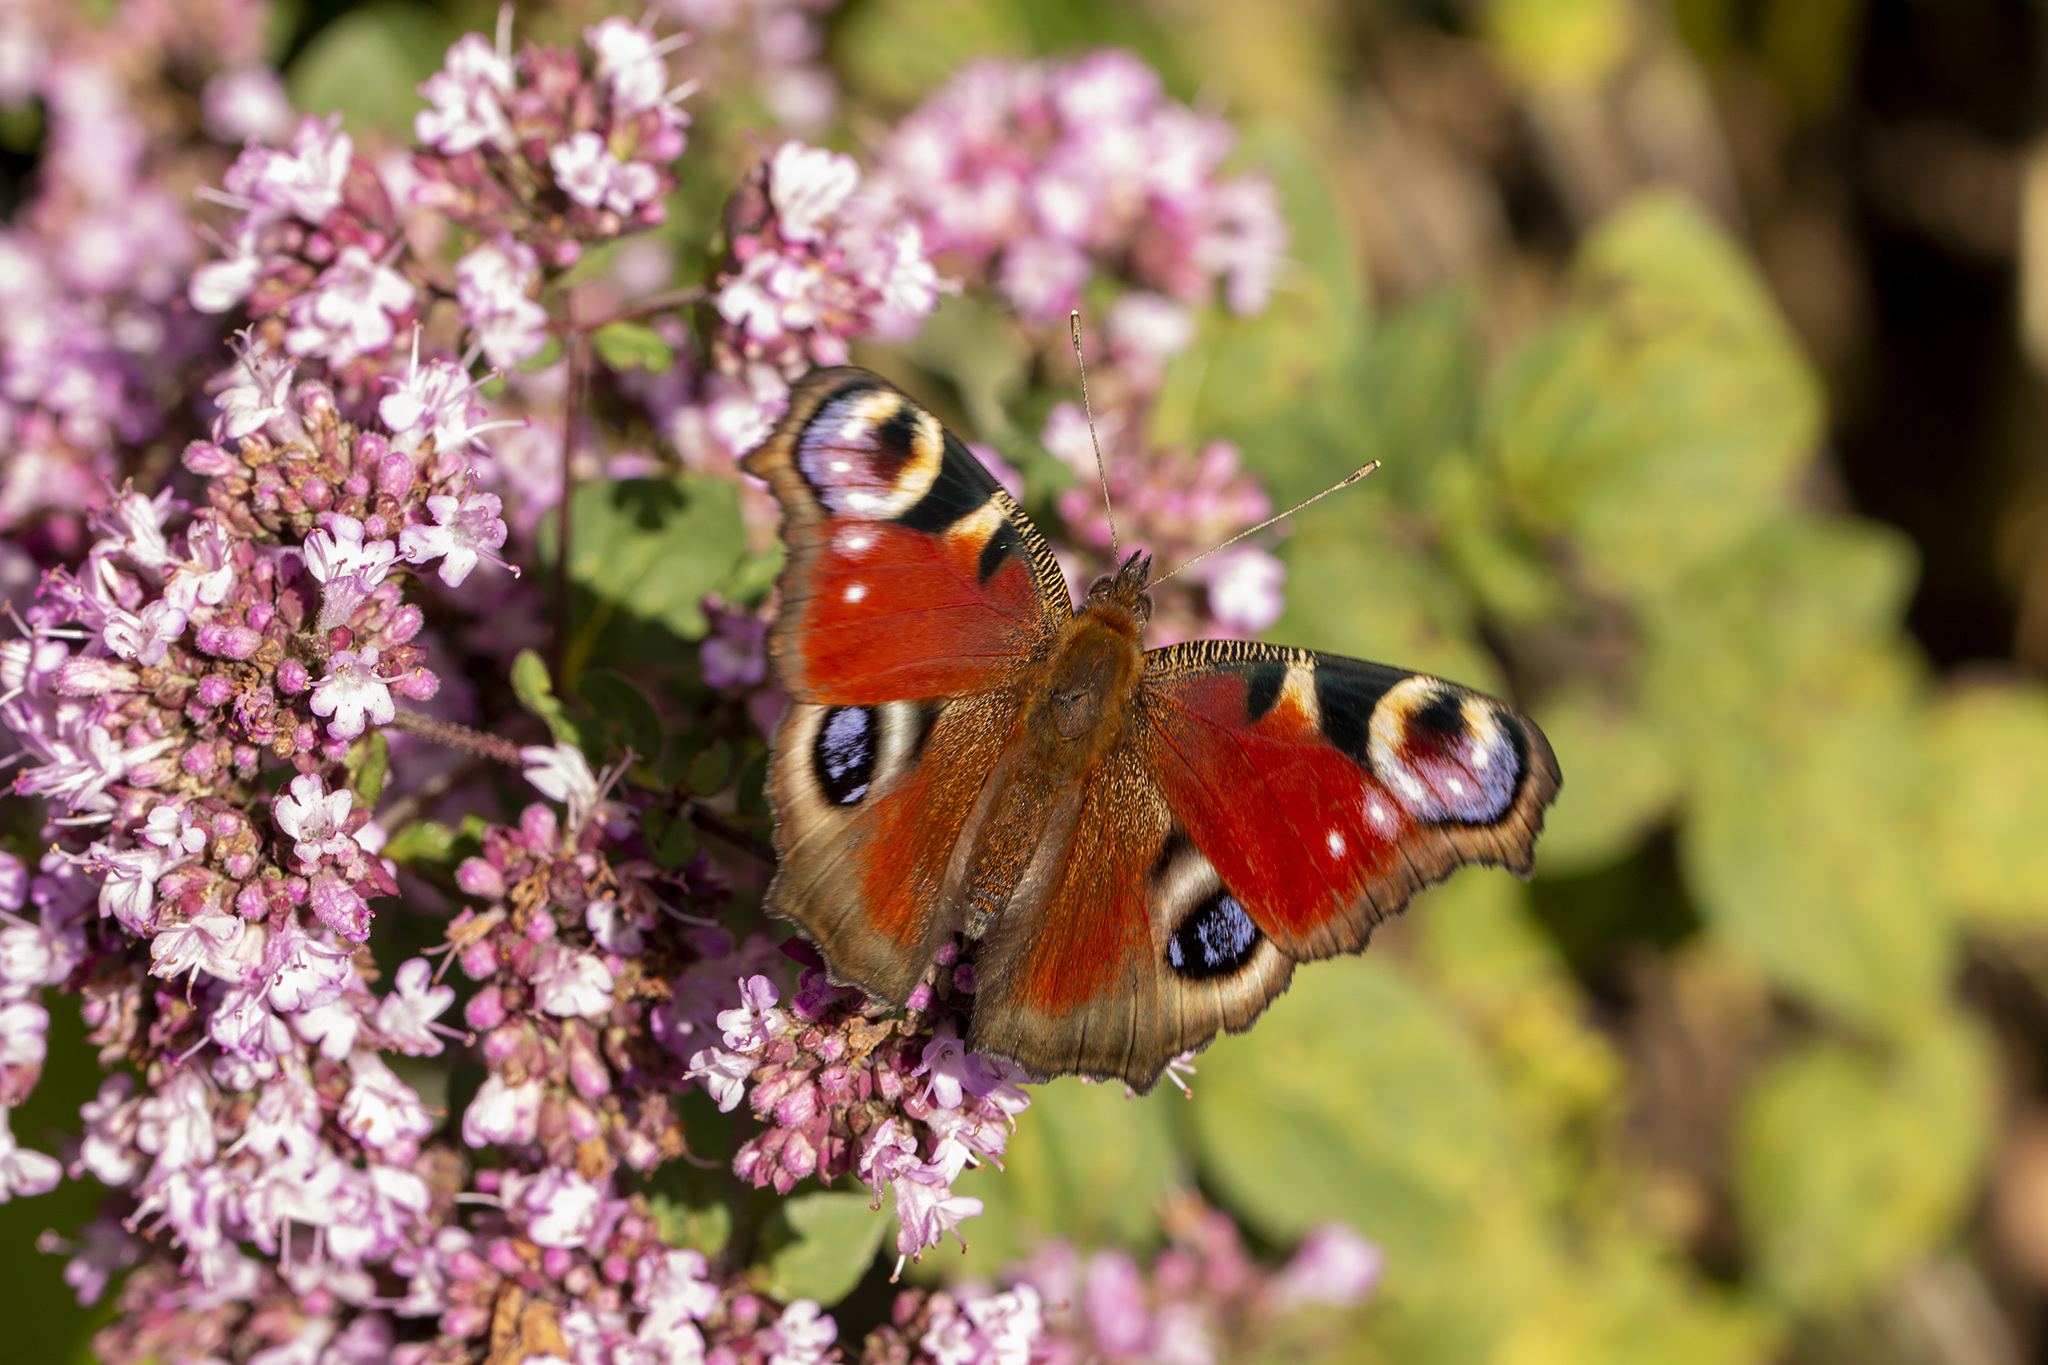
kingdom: Animalia
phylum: Arthropoda
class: Insecta
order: Lepidoptera
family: Nymphalidae
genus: Aglais
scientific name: Aglais io
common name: Peacock
